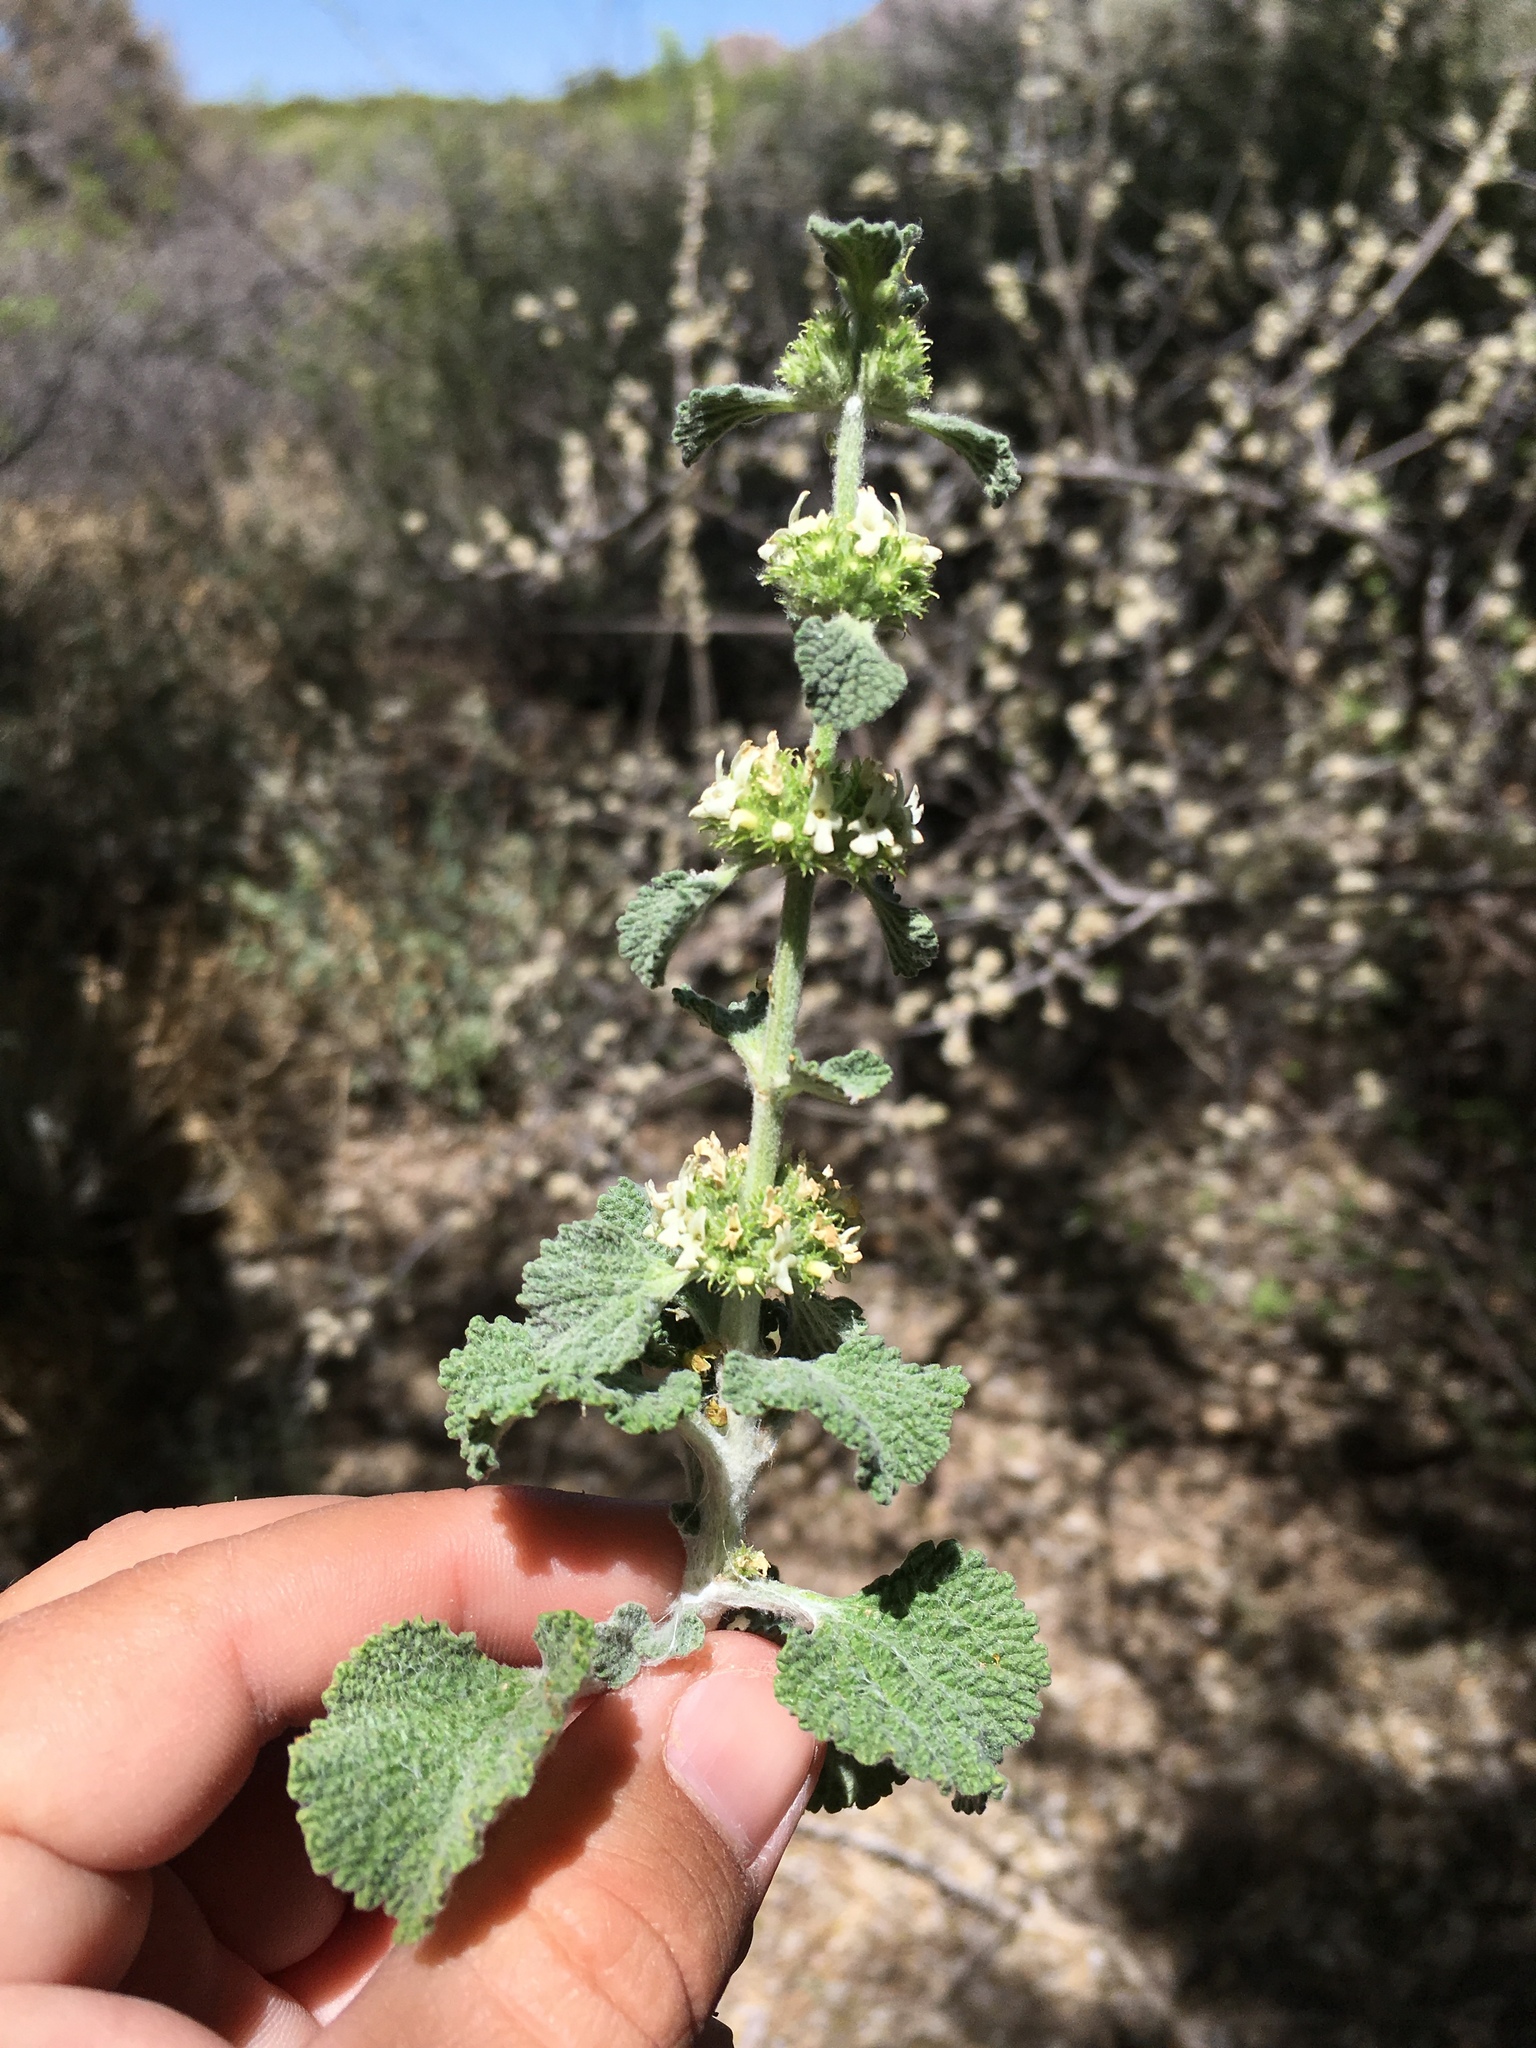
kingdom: Plantae
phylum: Tracheophyta
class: Magnoliopsida
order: Lamiales
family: Lamiaceae
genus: Marrubium
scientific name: Marrubium vulgare
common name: Horehound
